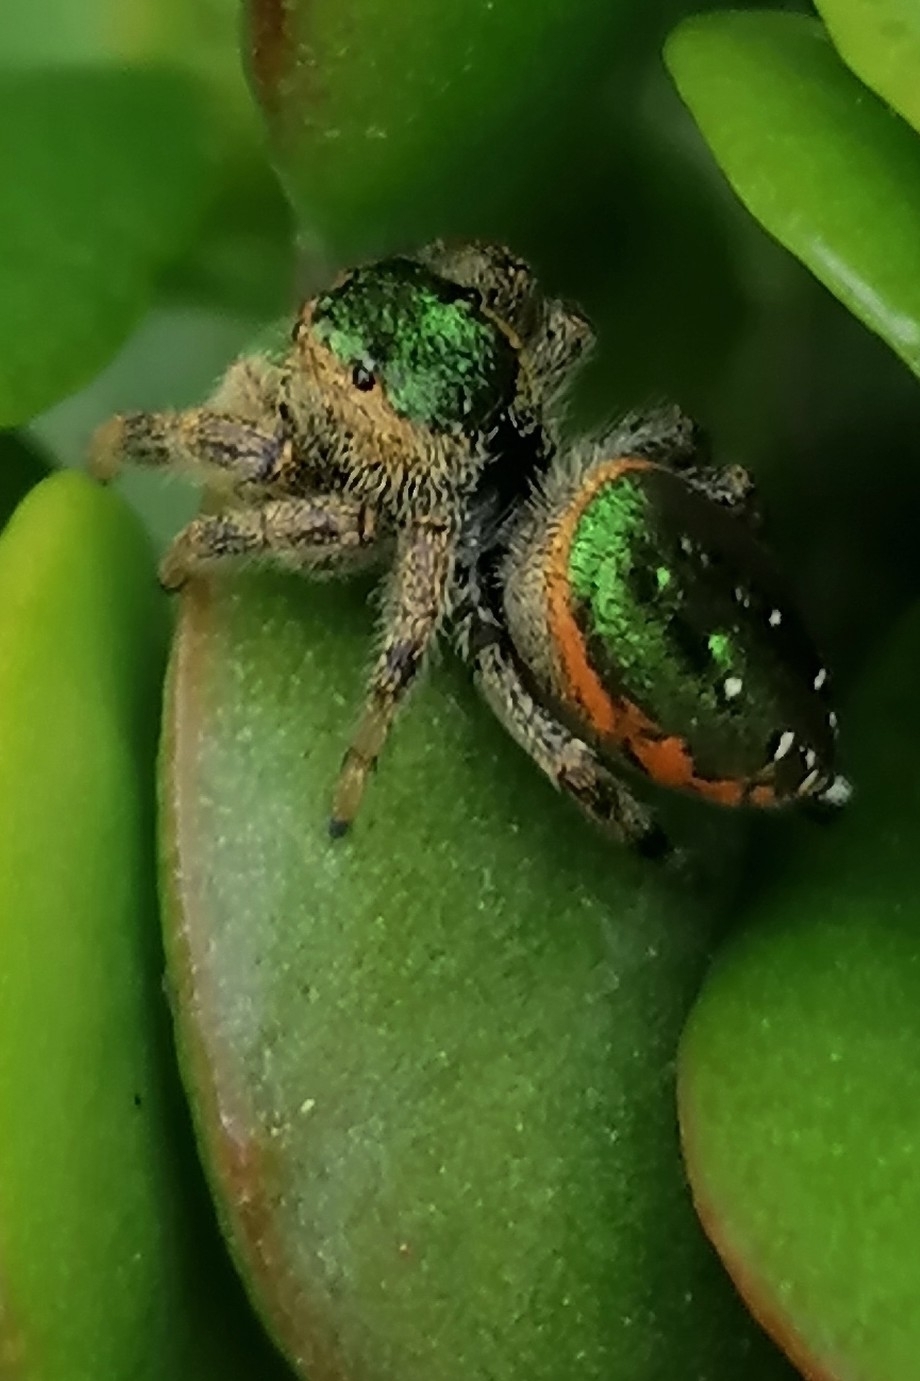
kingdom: Animalia
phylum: Arthropoda
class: Arachnida
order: Araneae
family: Salticidae
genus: Paraphidippus
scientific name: Paraphidippus aurantius
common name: Jumping spiders
